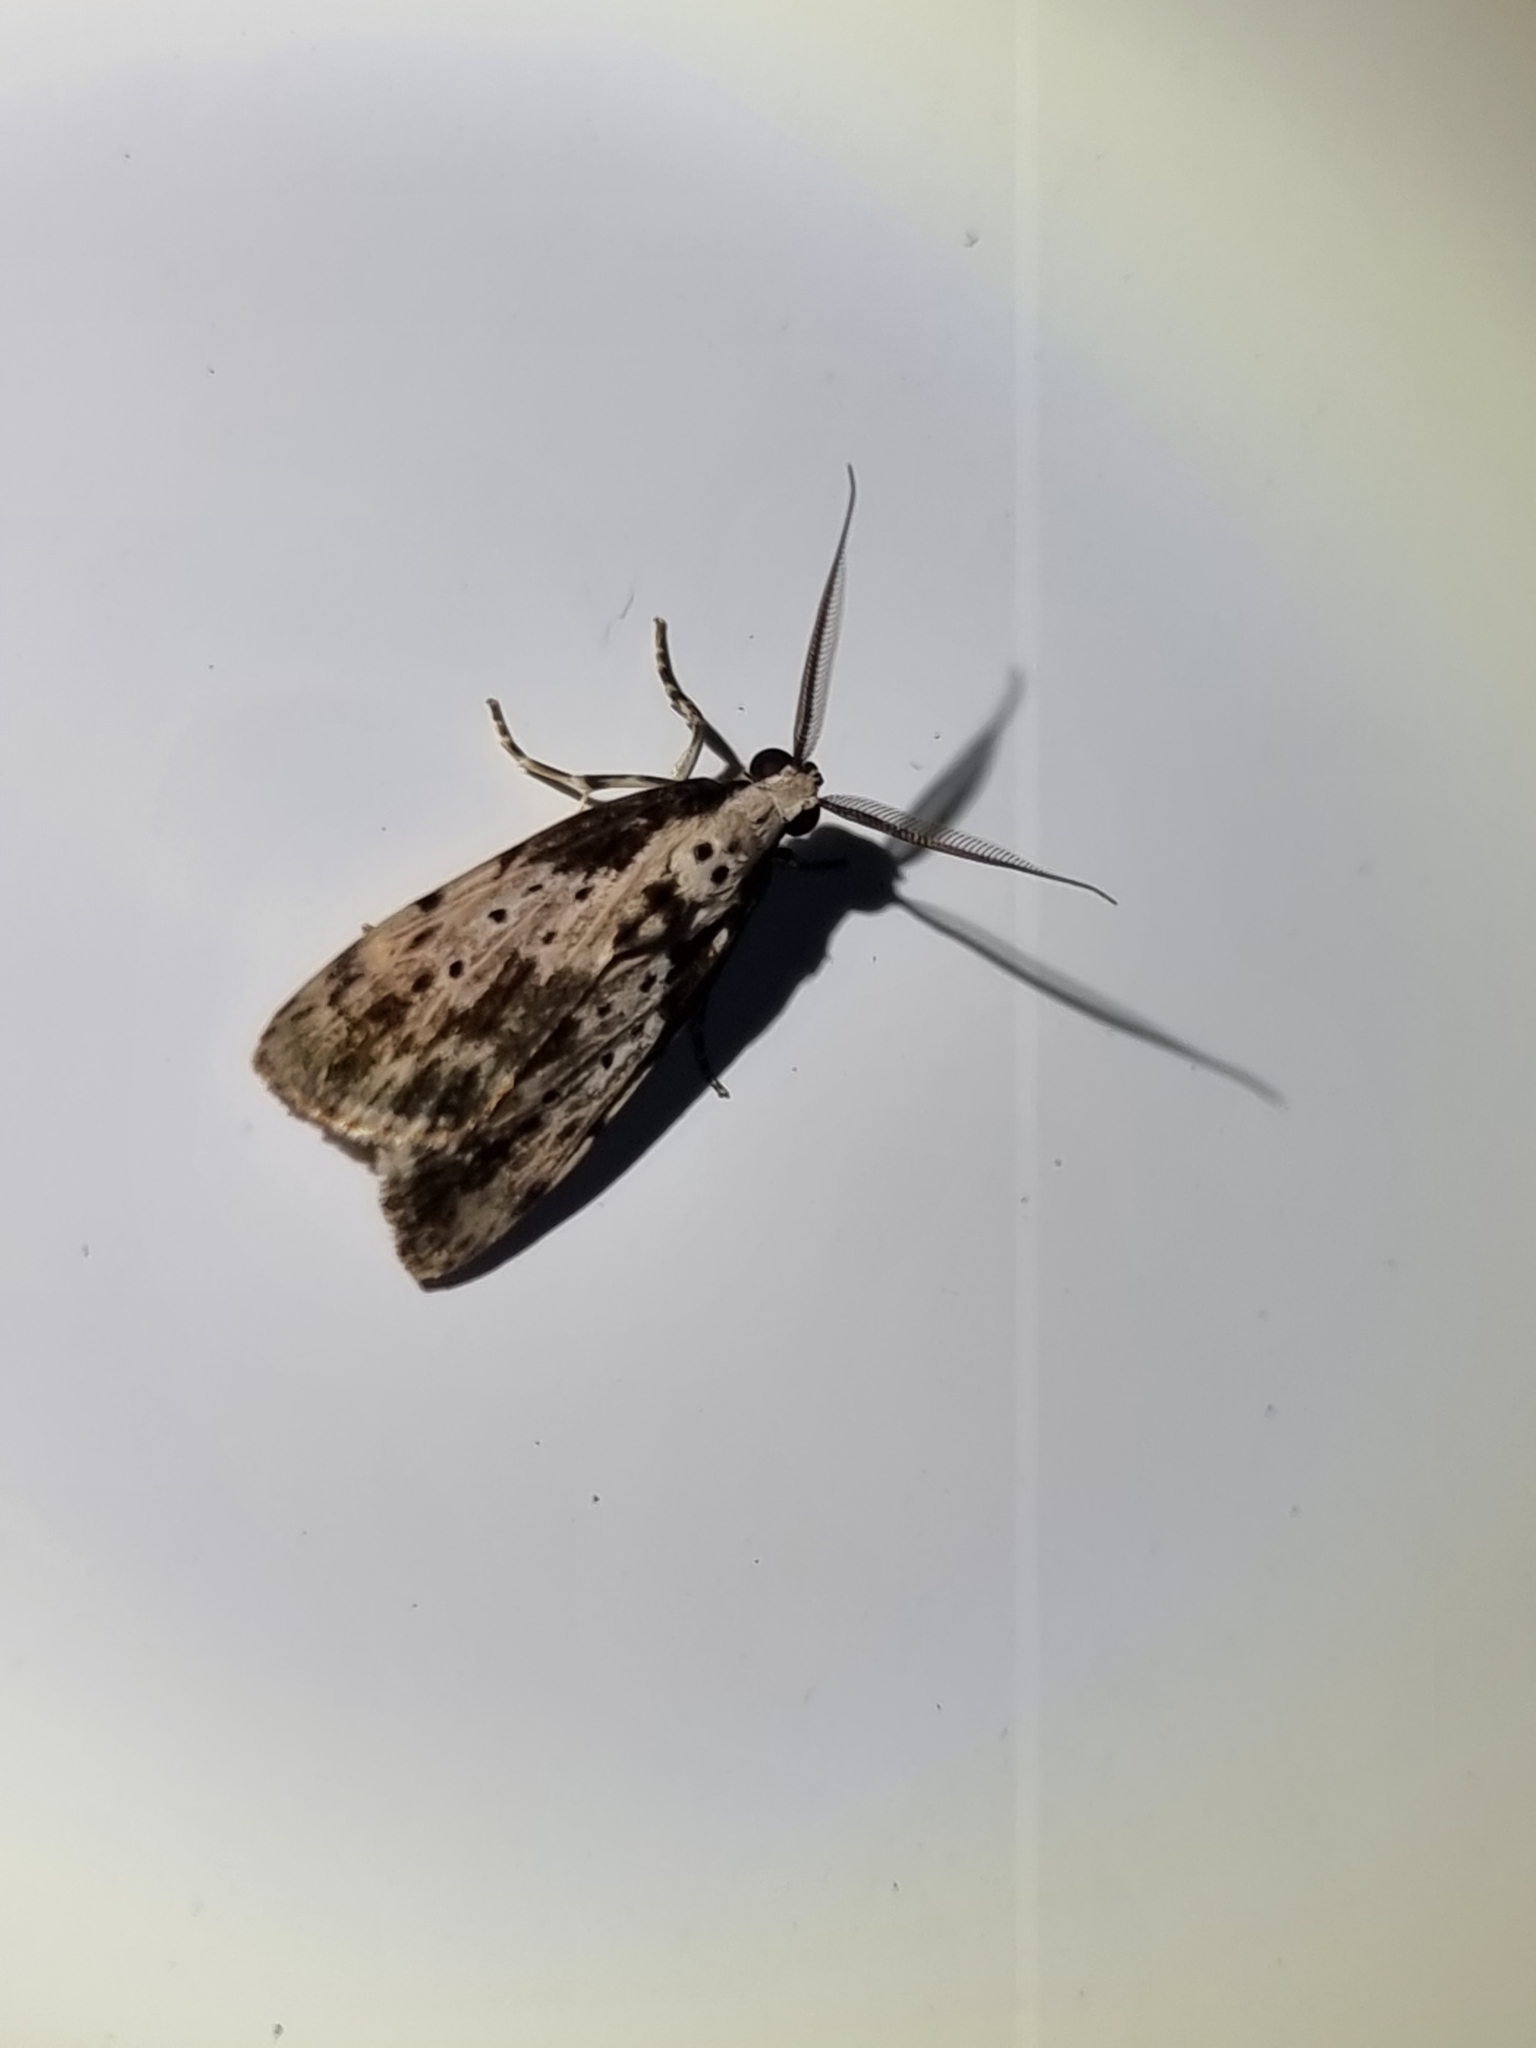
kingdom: Animalia
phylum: Arthropoda
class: Insecta
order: Lepidoptera
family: Erebidae
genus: Digama
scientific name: Digama Sommeria marmorea
